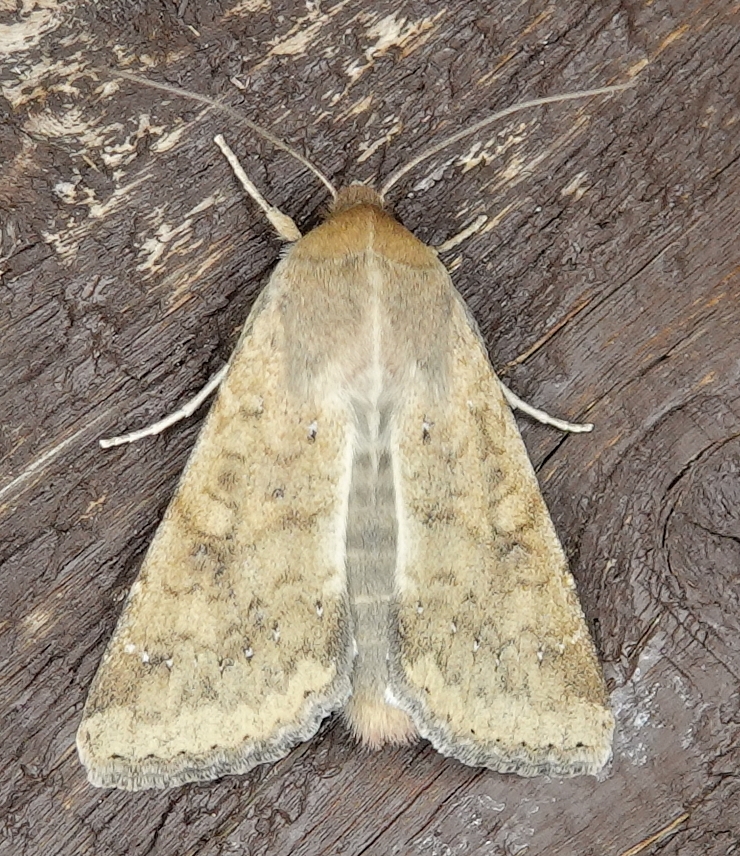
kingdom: Animalia
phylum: Arthropoda
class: Insecta
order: Lepidoptera
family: Noctuidae
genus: Helicoverpa
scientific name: Helicoverpa zea
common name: Bollworm
